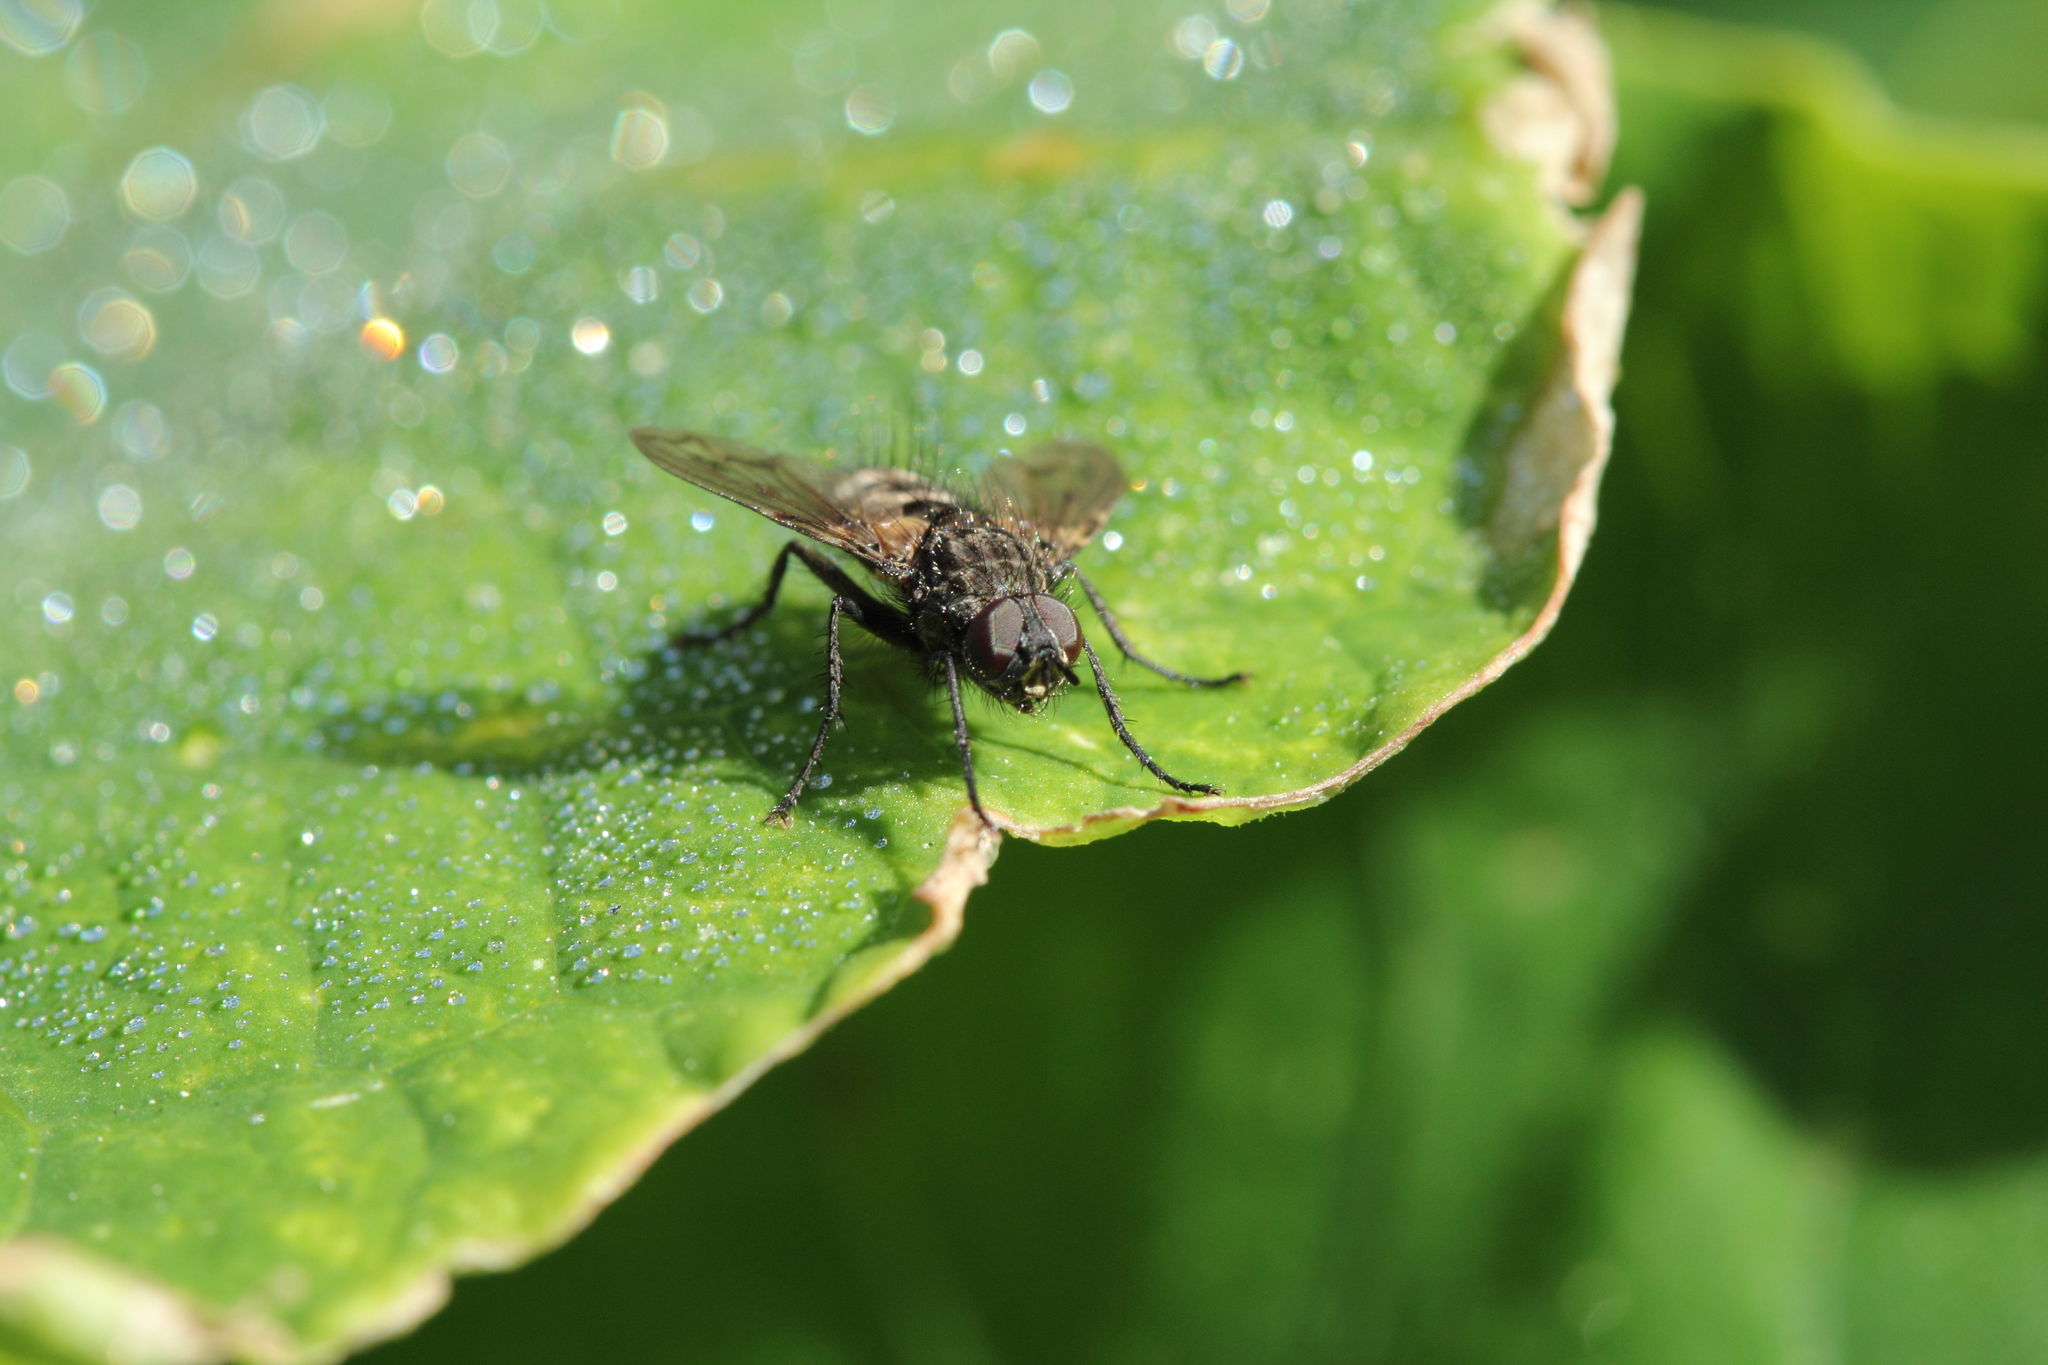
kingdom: Animalia
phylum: Arthropoda
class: Insecta
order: Diptera
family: Tachinidae
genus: Mallochomacquartia
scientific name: Mallochomacquartia vexata
